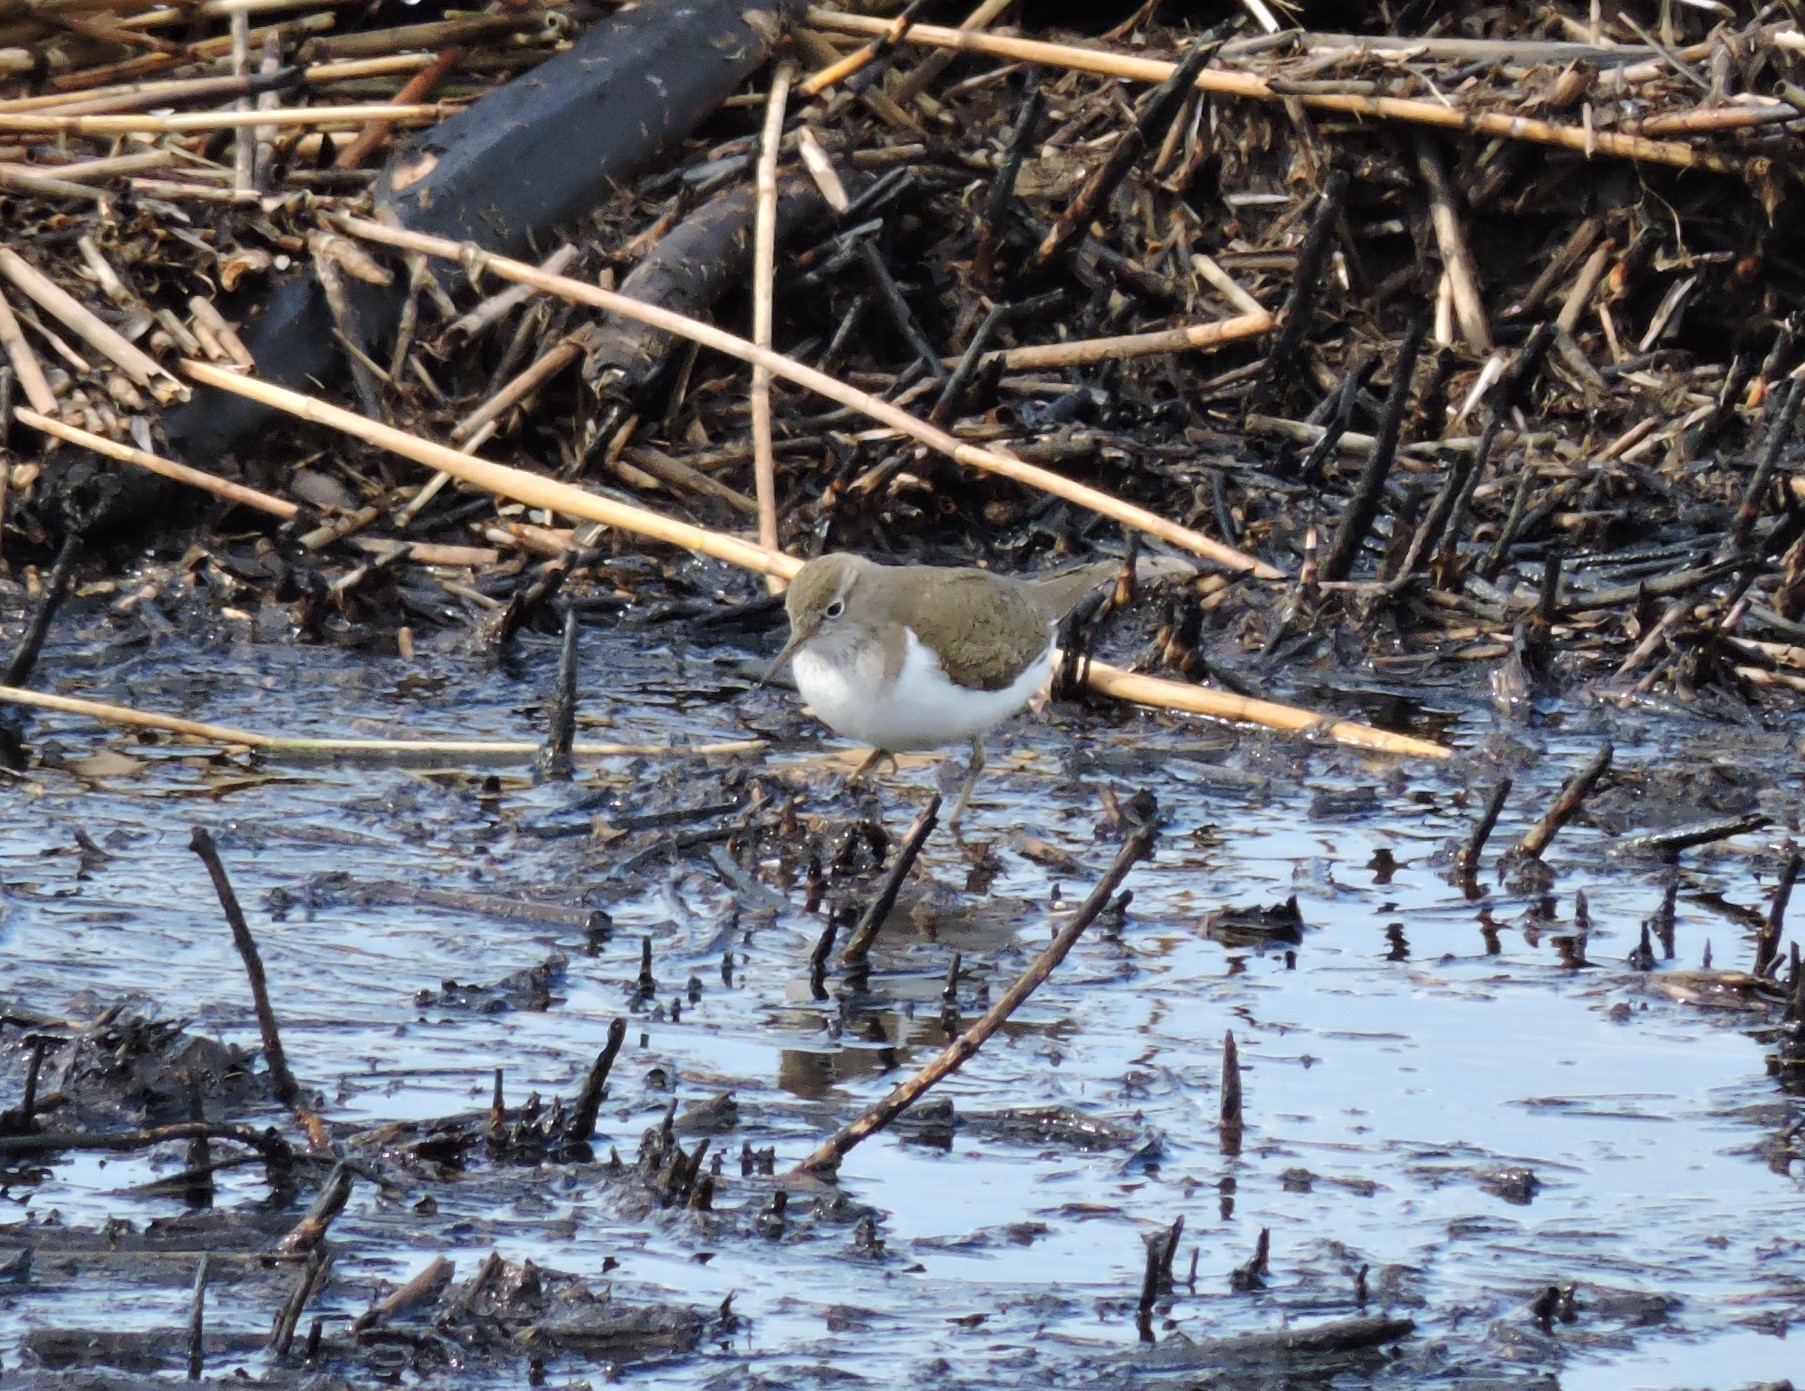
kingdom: Animalia
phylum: Chordata
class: Aves
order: Charadriiformes
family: Scolopacidae
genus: Actitis
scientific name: Actitis hypoleucos
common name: Common sandpiper
